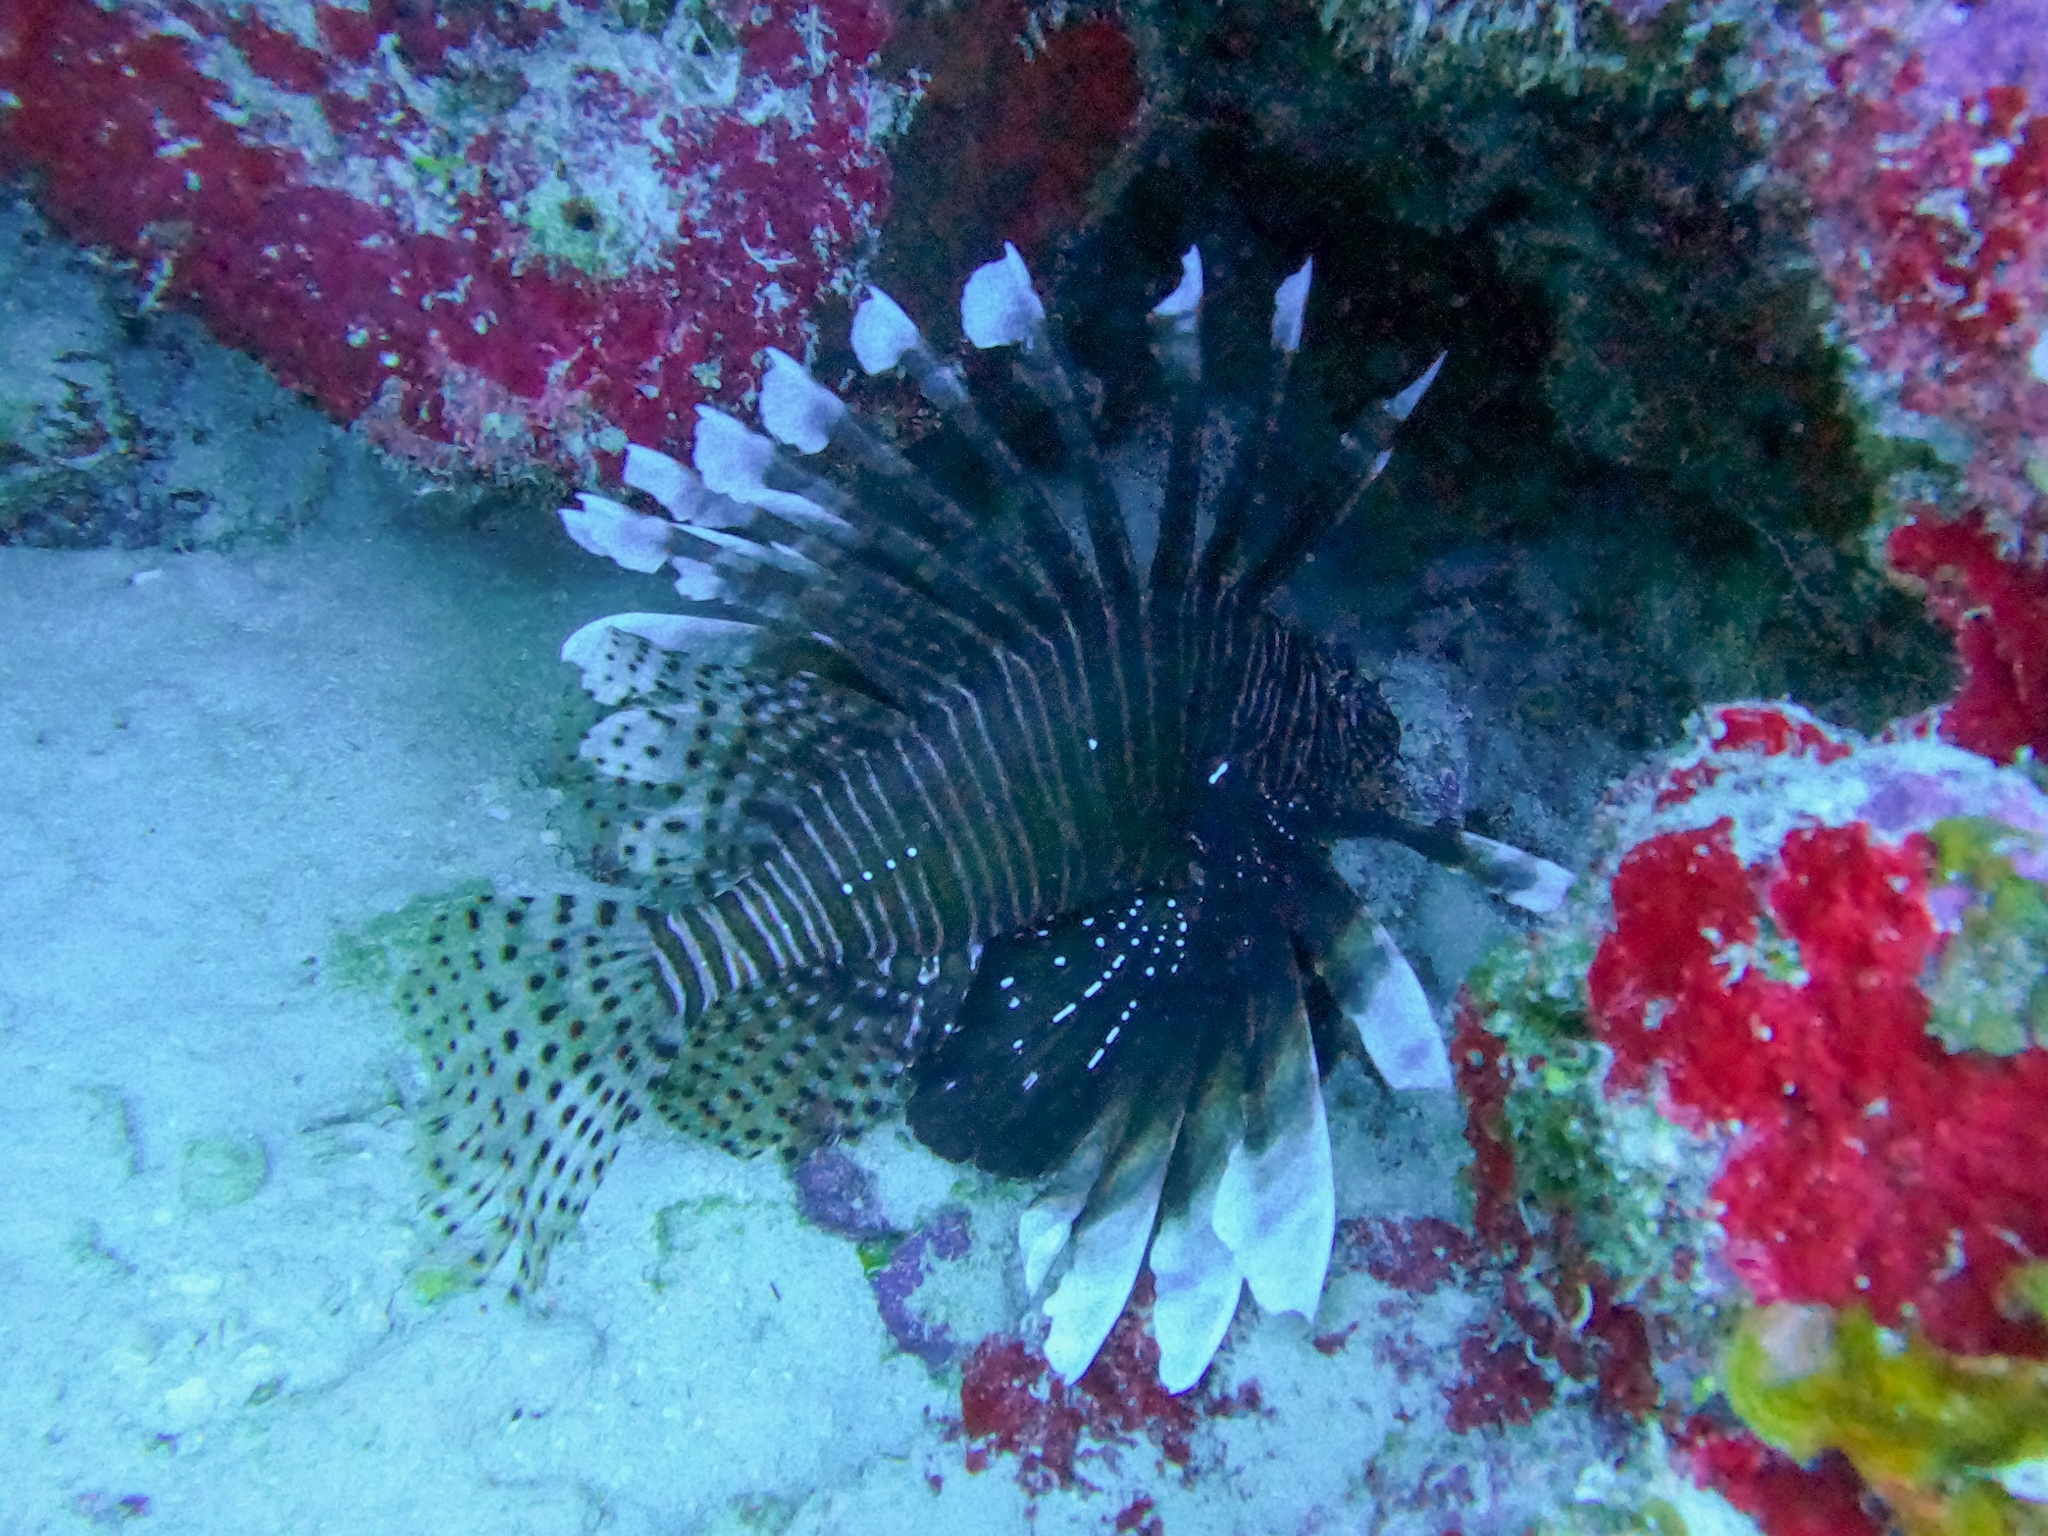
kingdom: Animalia
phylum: Chordata
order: Scorpaeniformes
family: Scorpaenidae
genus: Pterois
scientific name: Pterois volitans
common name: Lionfish
